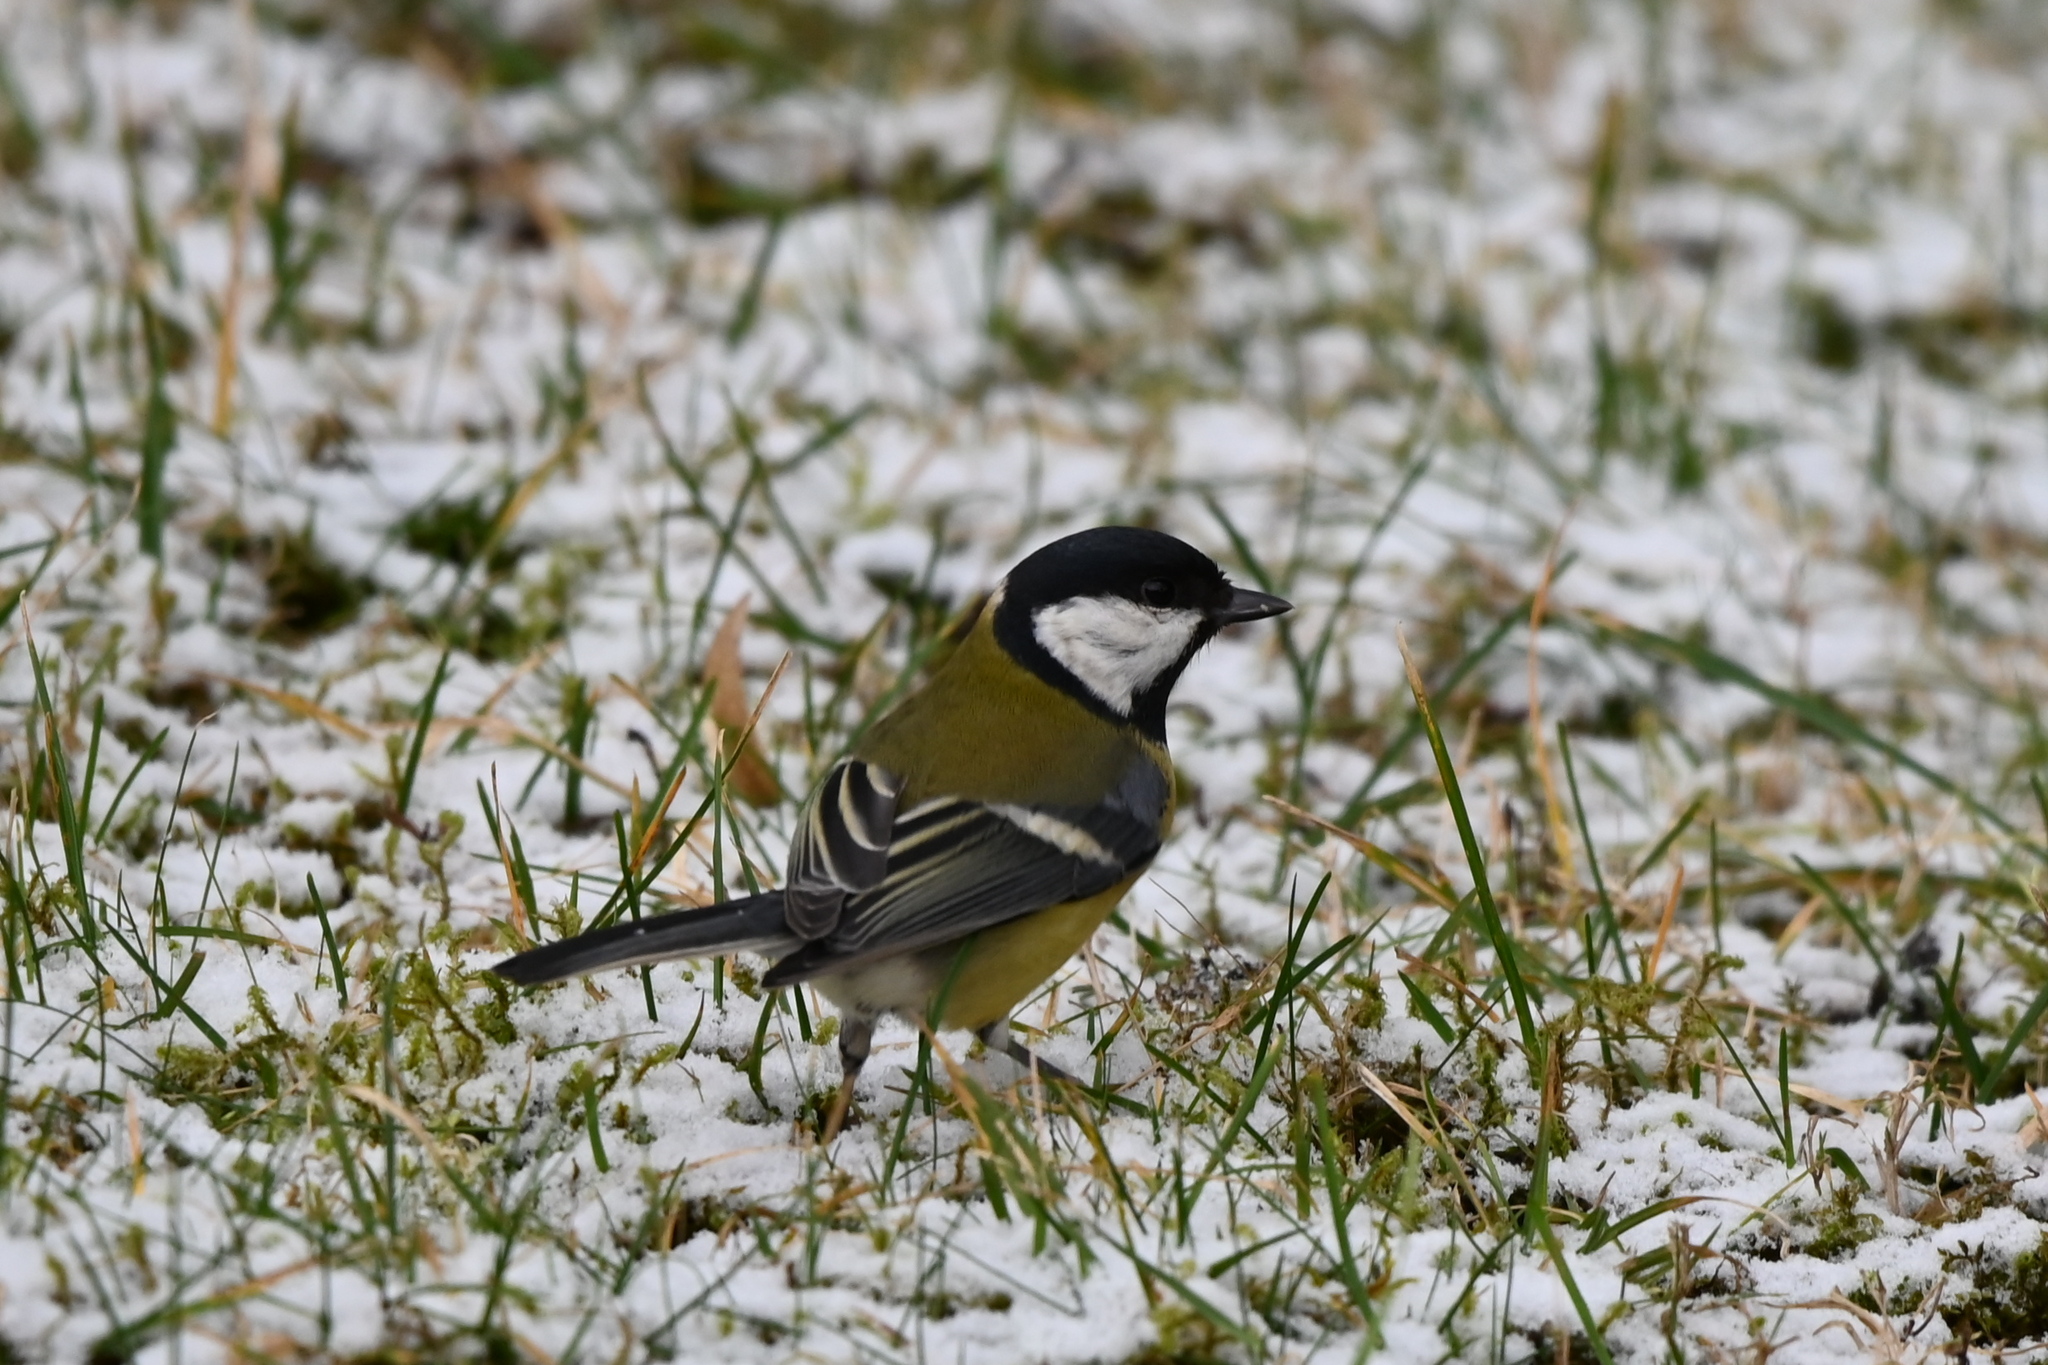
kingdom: Animalia
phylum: Chordata
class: Aves
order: Passeriformes
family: Paridae
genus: Parus
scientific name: Parus major
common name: Great tit
